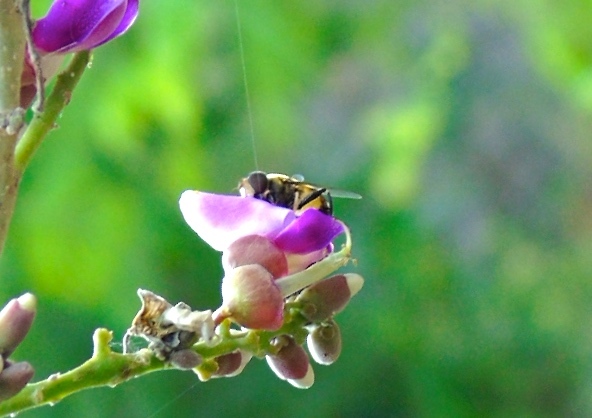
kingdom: Animalia
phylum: Arthropoda
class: Insecta
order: Diptera
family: Syrphidae
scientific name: Syrphidae
